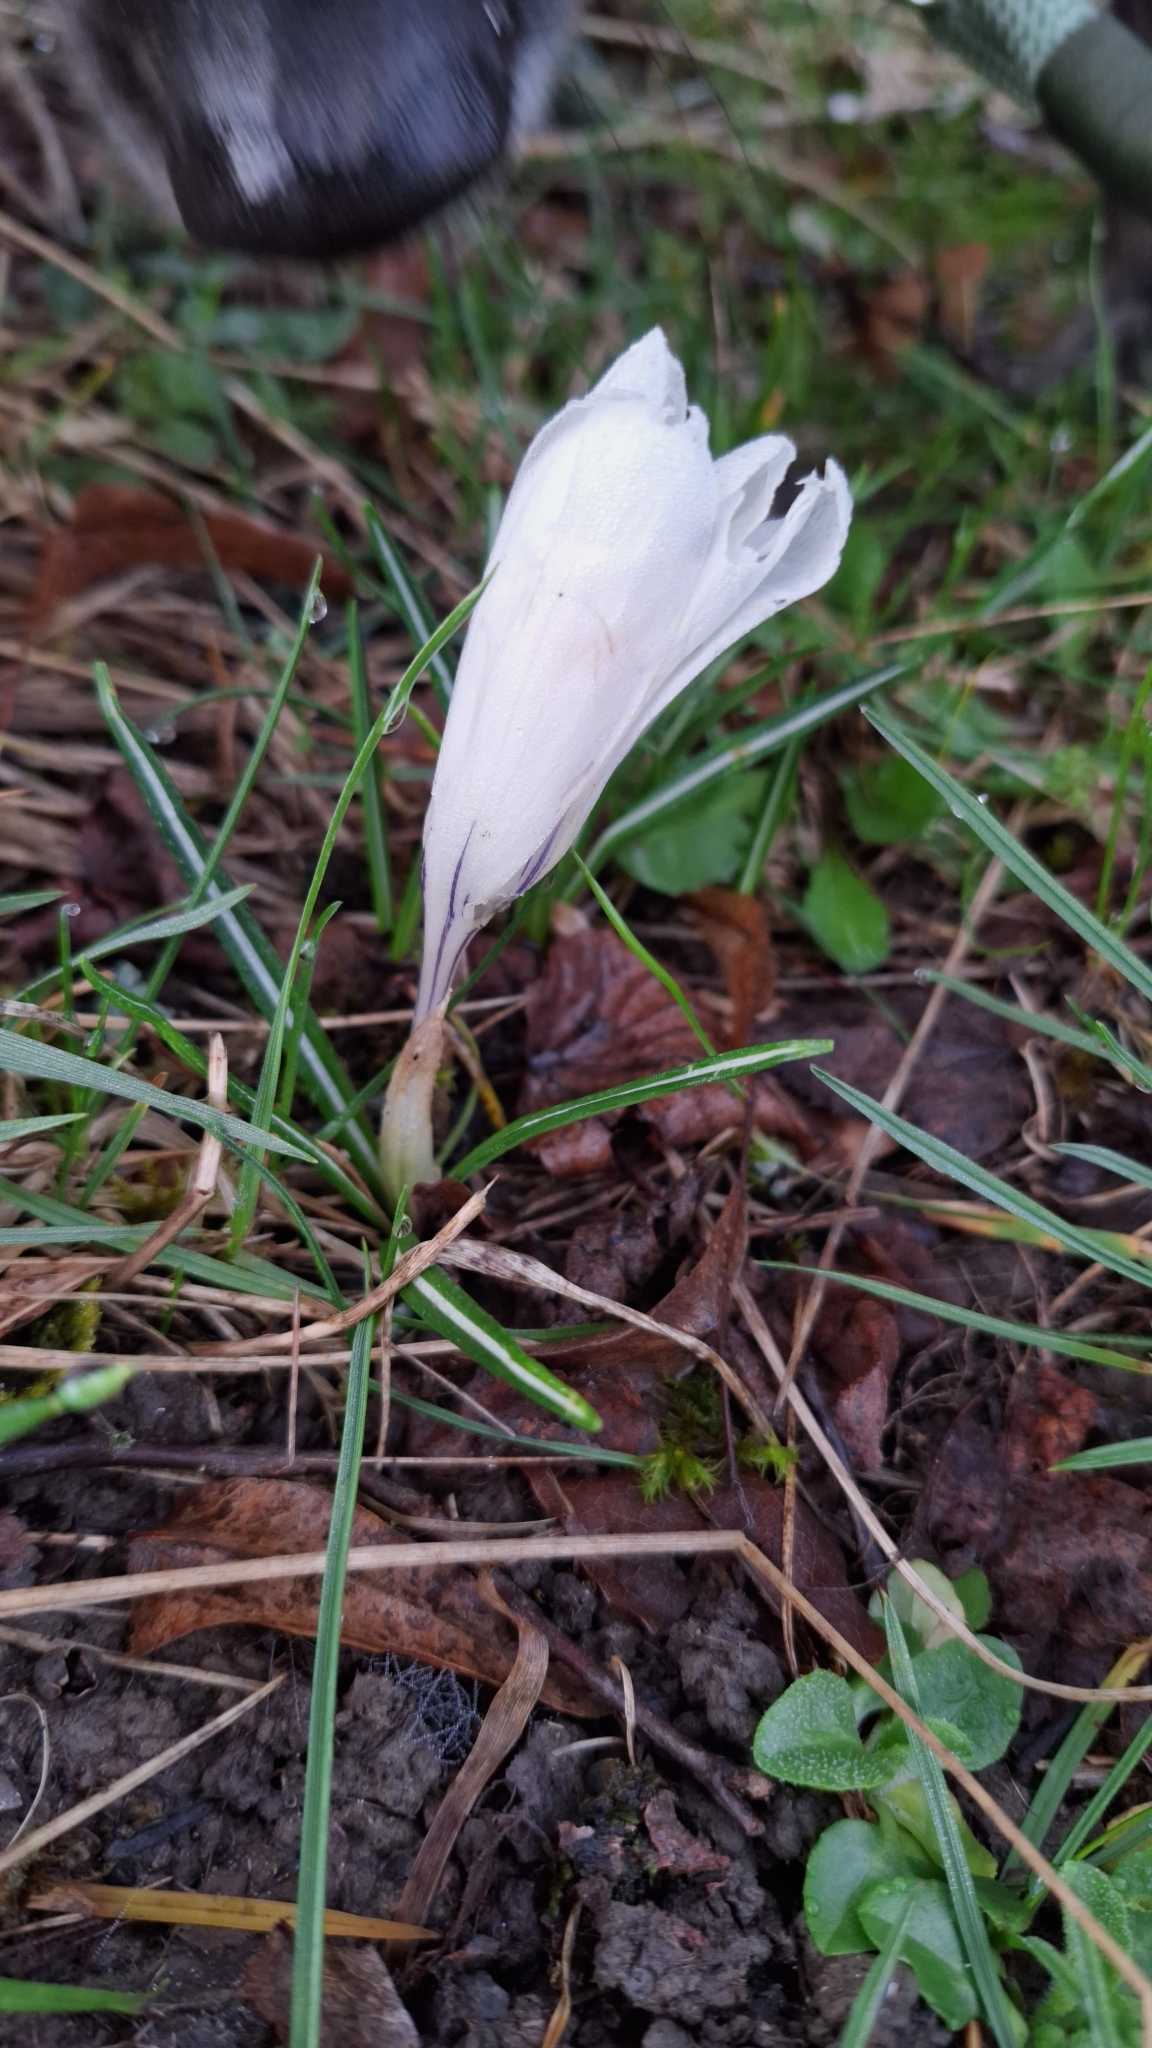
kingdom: Plantae
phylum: Tracheophyta
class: Liliopsida
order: Asparagales
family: Iridaceae
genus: Crocus
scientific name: Crocus vernus
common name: Spring crocus
